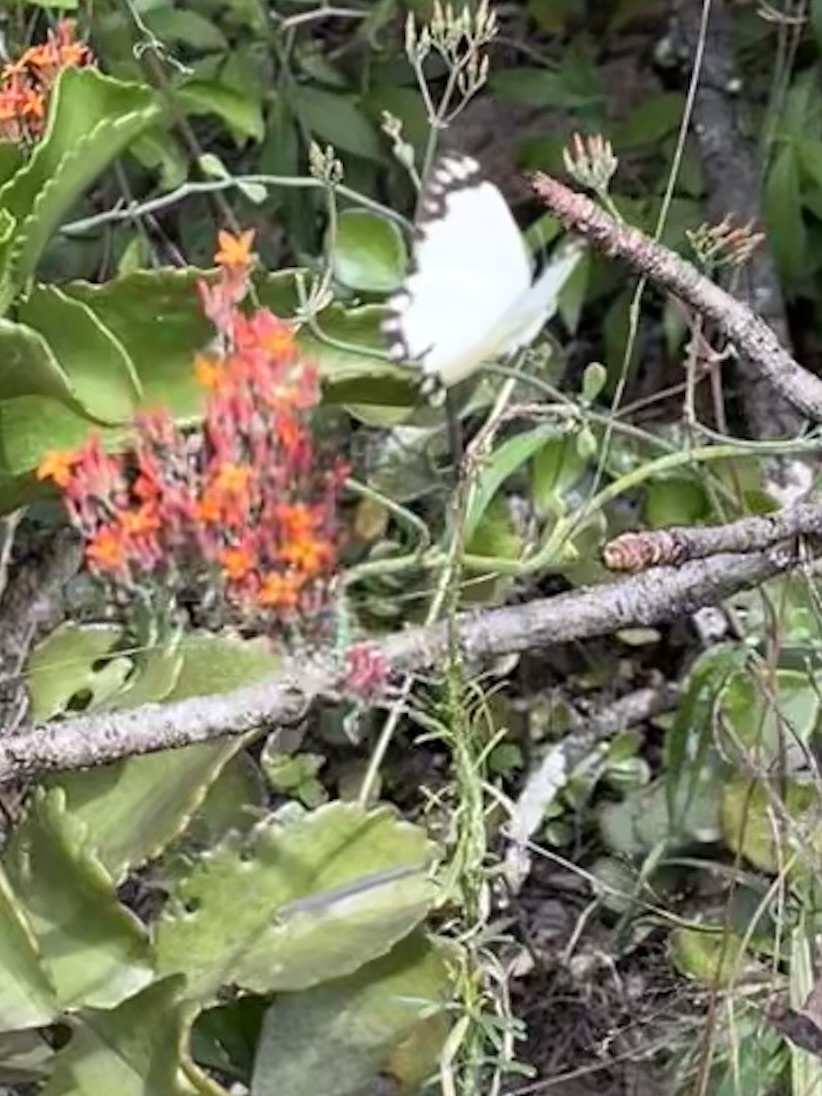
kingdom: Animalia
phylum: Arthropoda
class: Insecta
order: Lepidoptera
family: Pieridae
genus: Belenois
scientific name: Belenois creona
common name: African caper white
